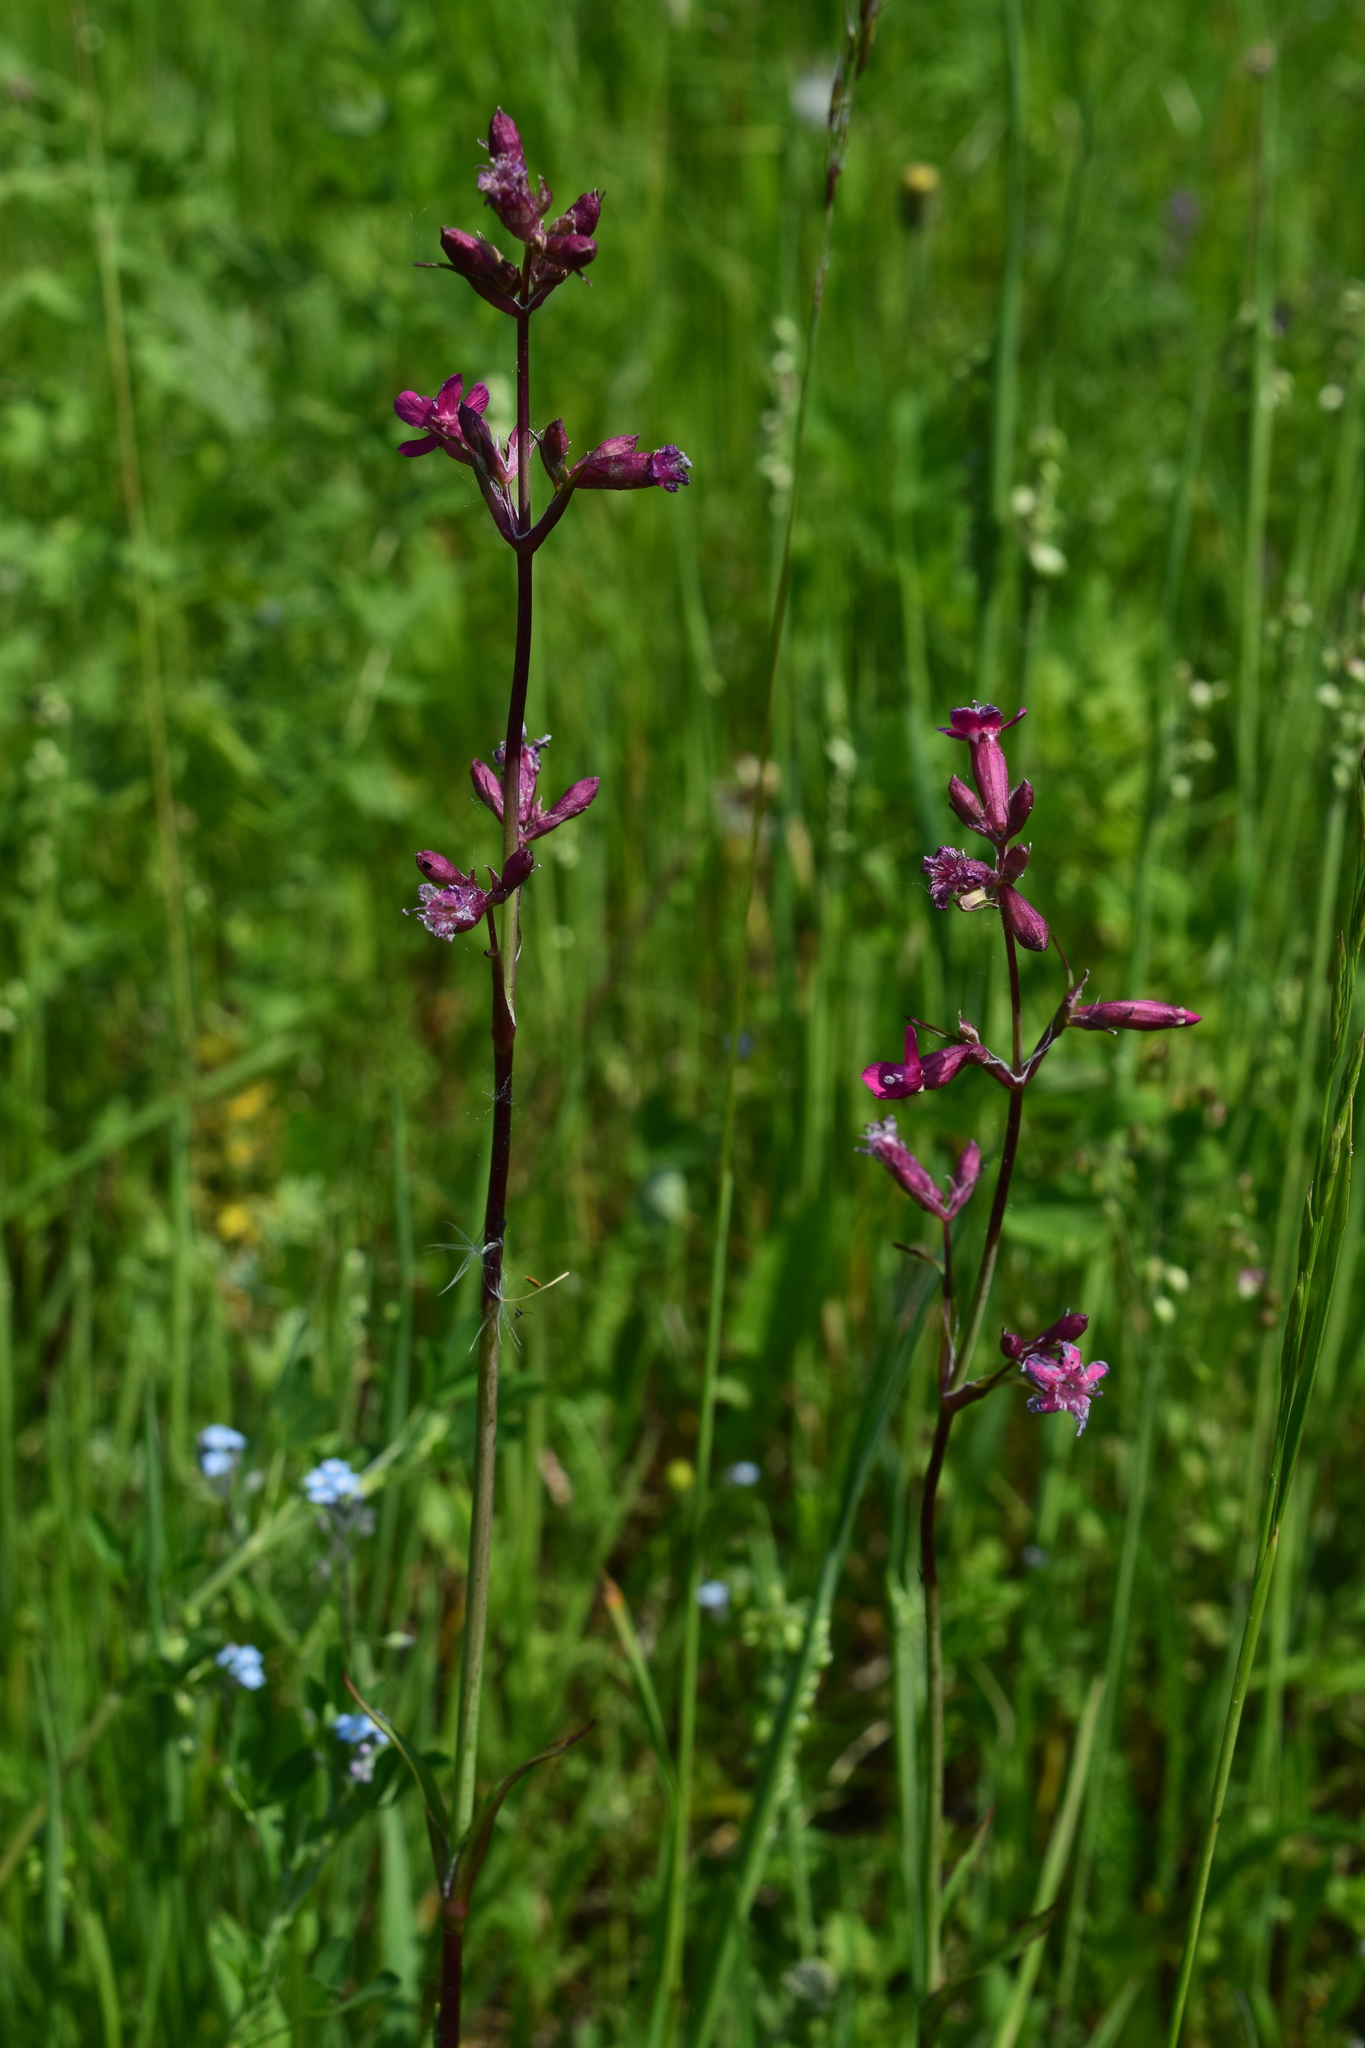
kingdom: Plantae
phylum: Tracheophyta
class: Magnoliopsida
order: Caryophyllales
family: Caryophyllaceae
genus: Viscaria
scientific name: Viscaria vulgaris
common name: Clammy campion
